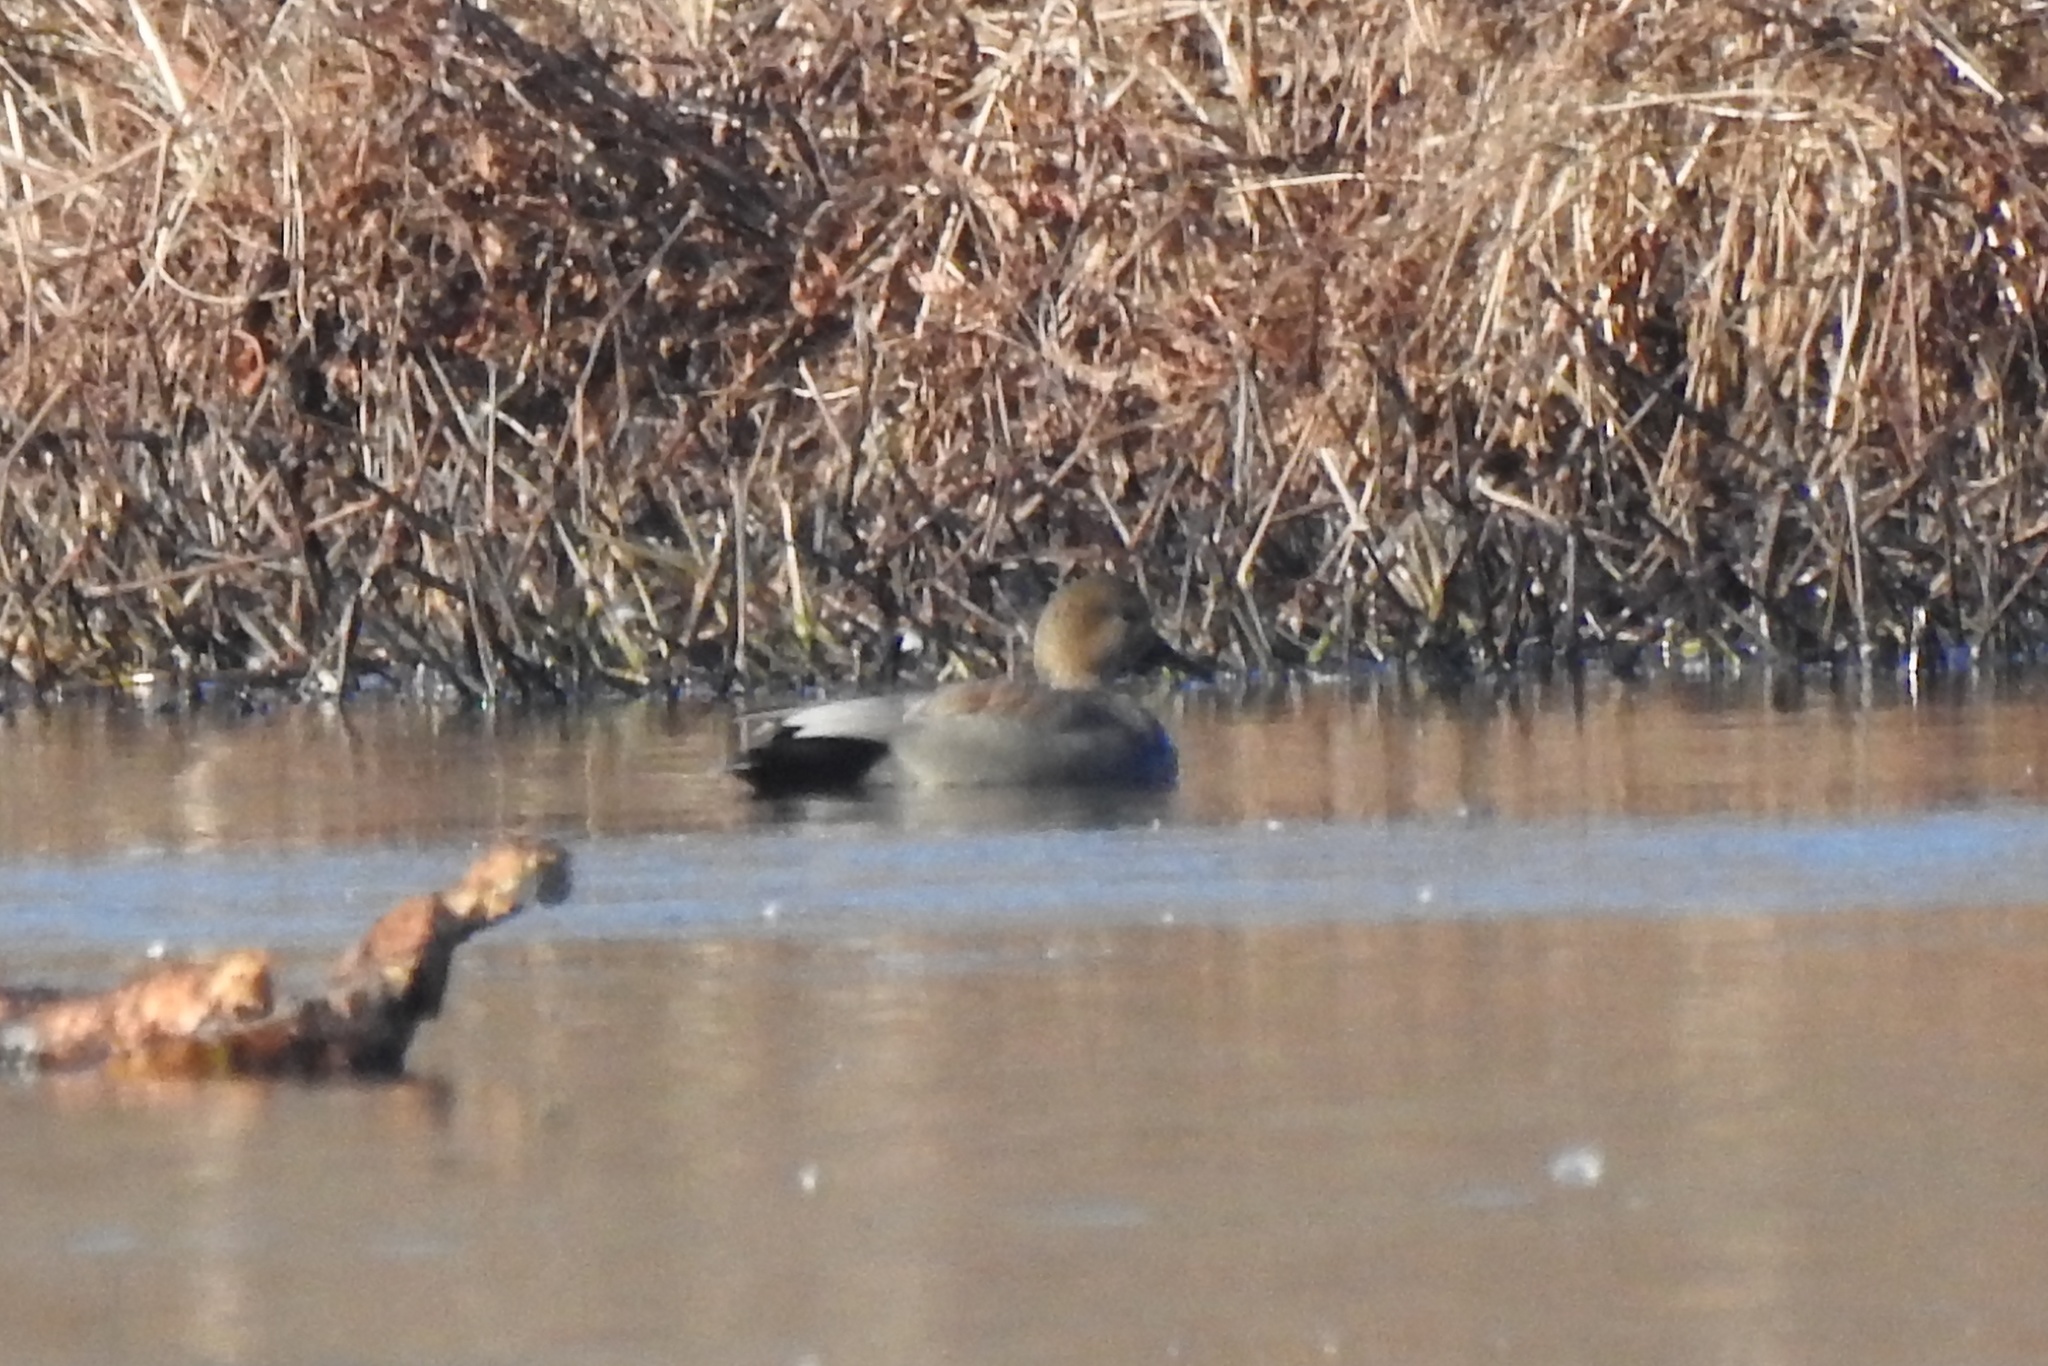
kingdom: Animalia
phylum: Chordata
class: Aves
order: Anseriformes
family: Anatidae
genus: Mareca
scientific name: Mareca strepera
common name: Gadwall
